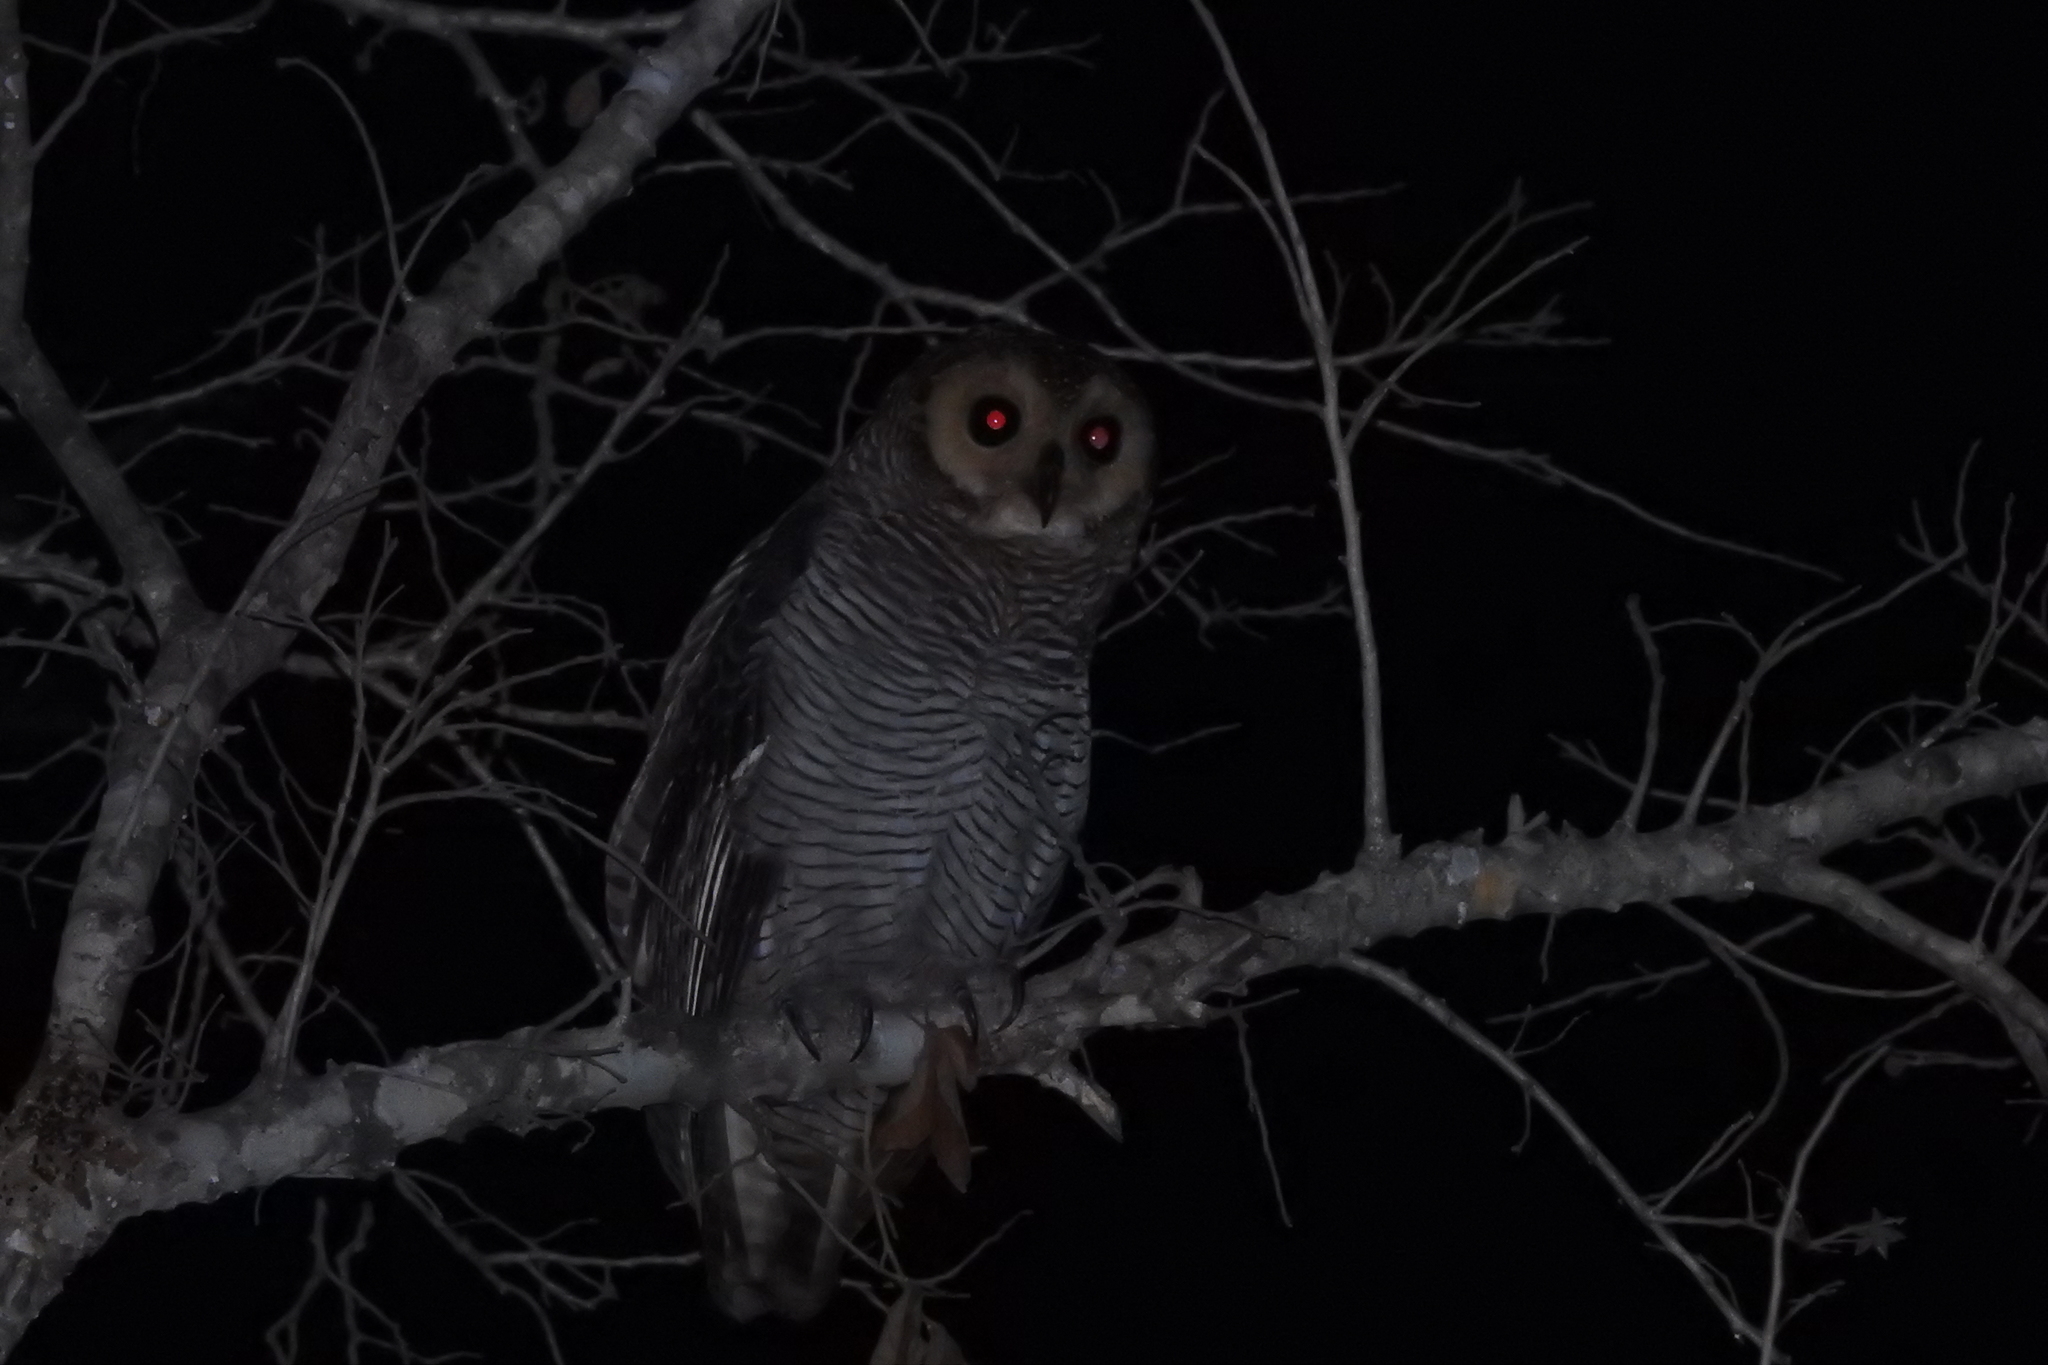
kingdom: Animalia
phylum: Chordata
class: Aves
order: Strigiformes
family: Strigidae
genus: Strix
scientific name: Strix seloputo
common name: Spotted wood owl
